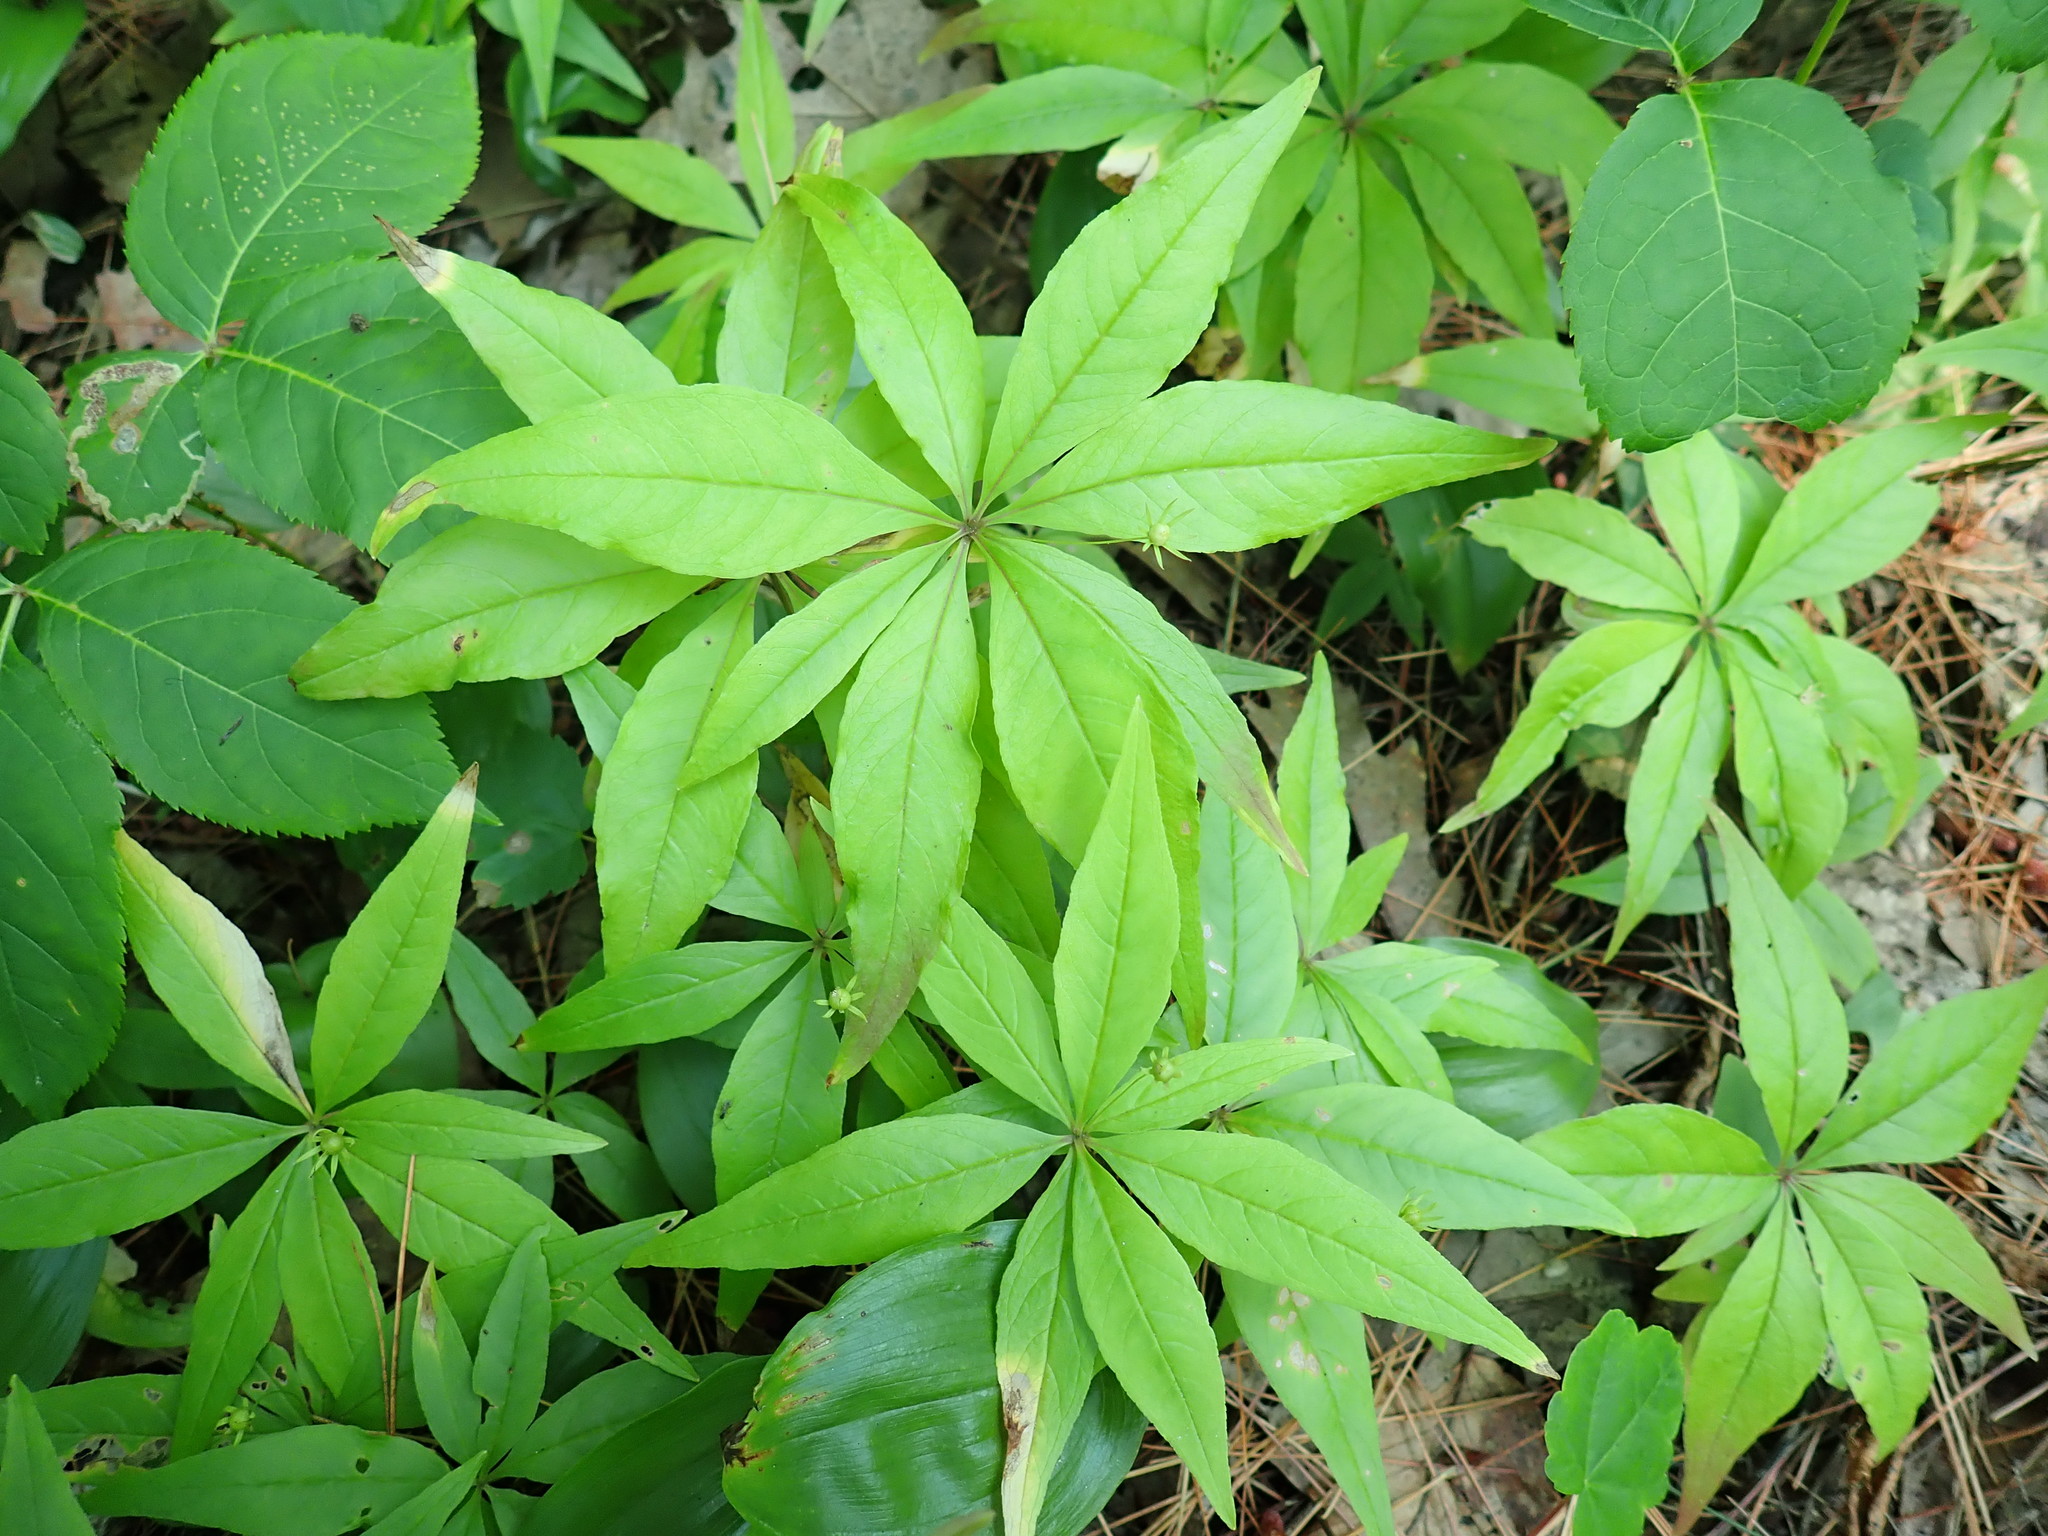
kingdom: Plantae
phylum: Tracheophyta
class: Magnoliopsida
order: Ericales
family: Primulaceae
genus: Lysimachia
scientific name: Lysimachia borealis
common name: American starflower
